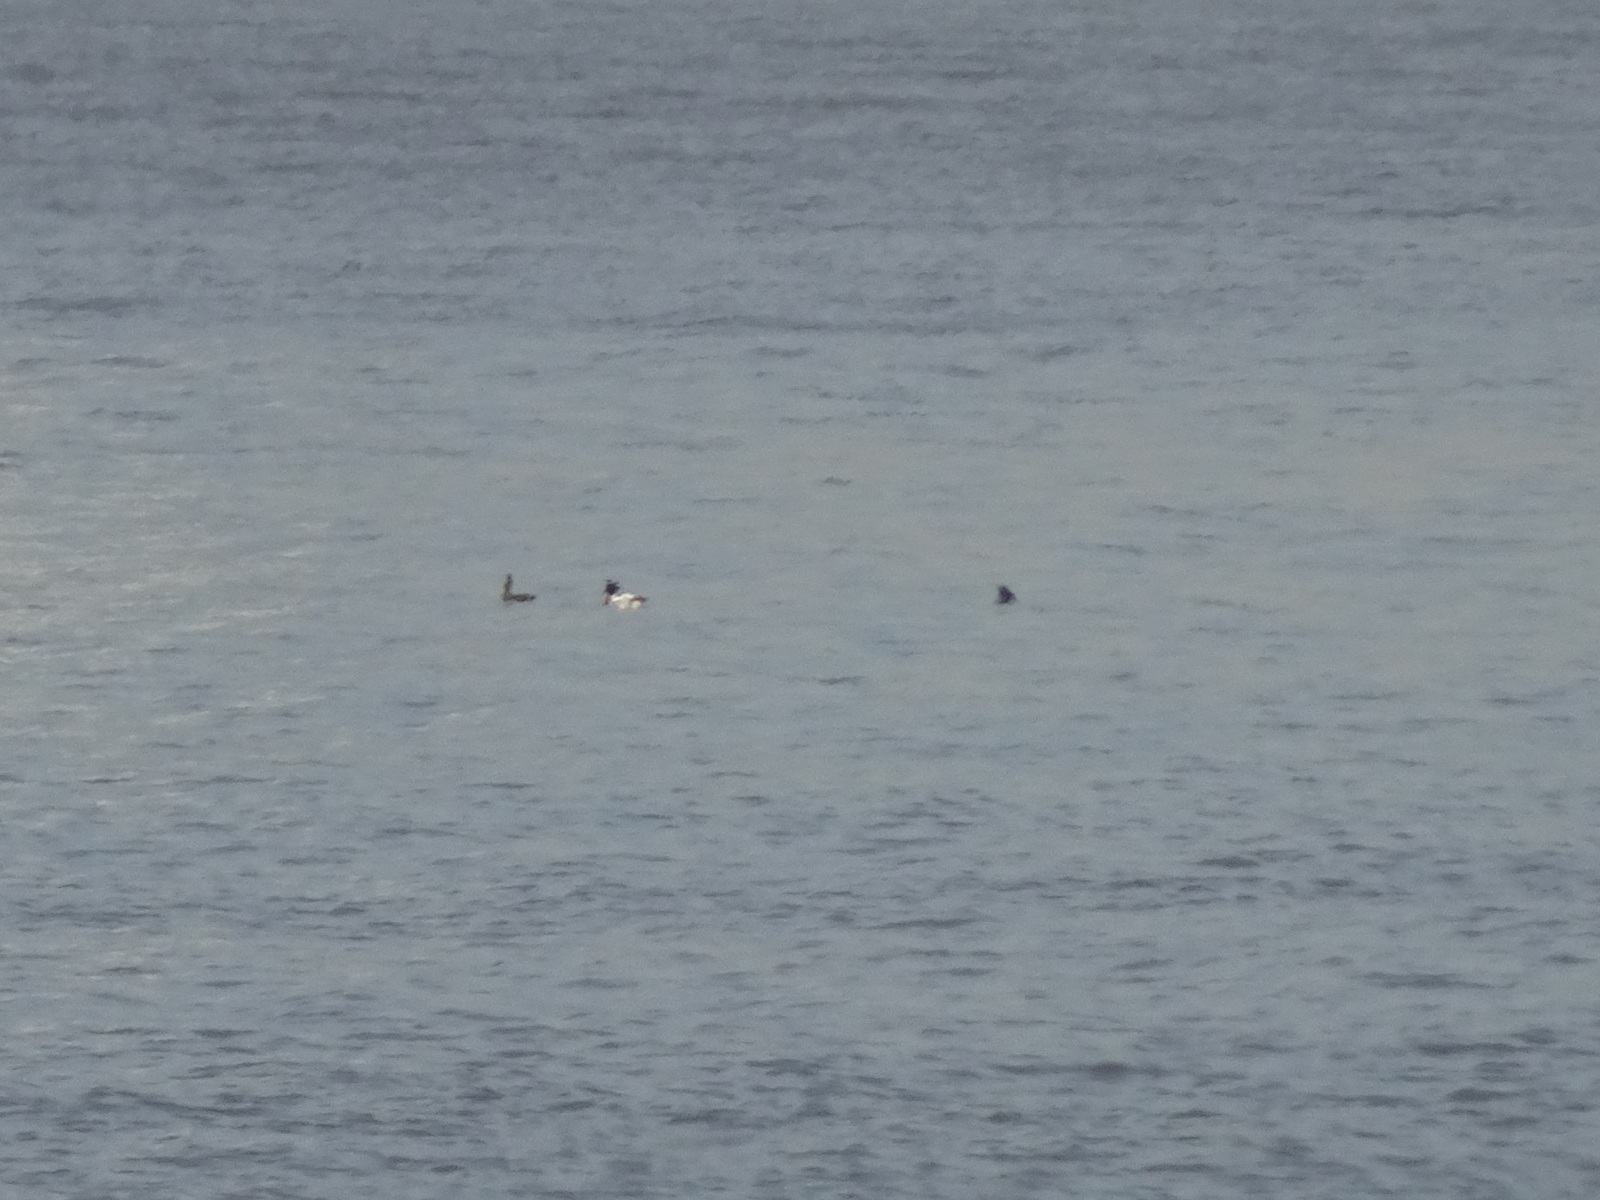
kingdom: Animalia
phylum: Chordata
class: Aves
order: Anseriformes
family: Anatidae
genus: Mergus
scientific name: Mergus serrator
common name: Red-breasted merganser
